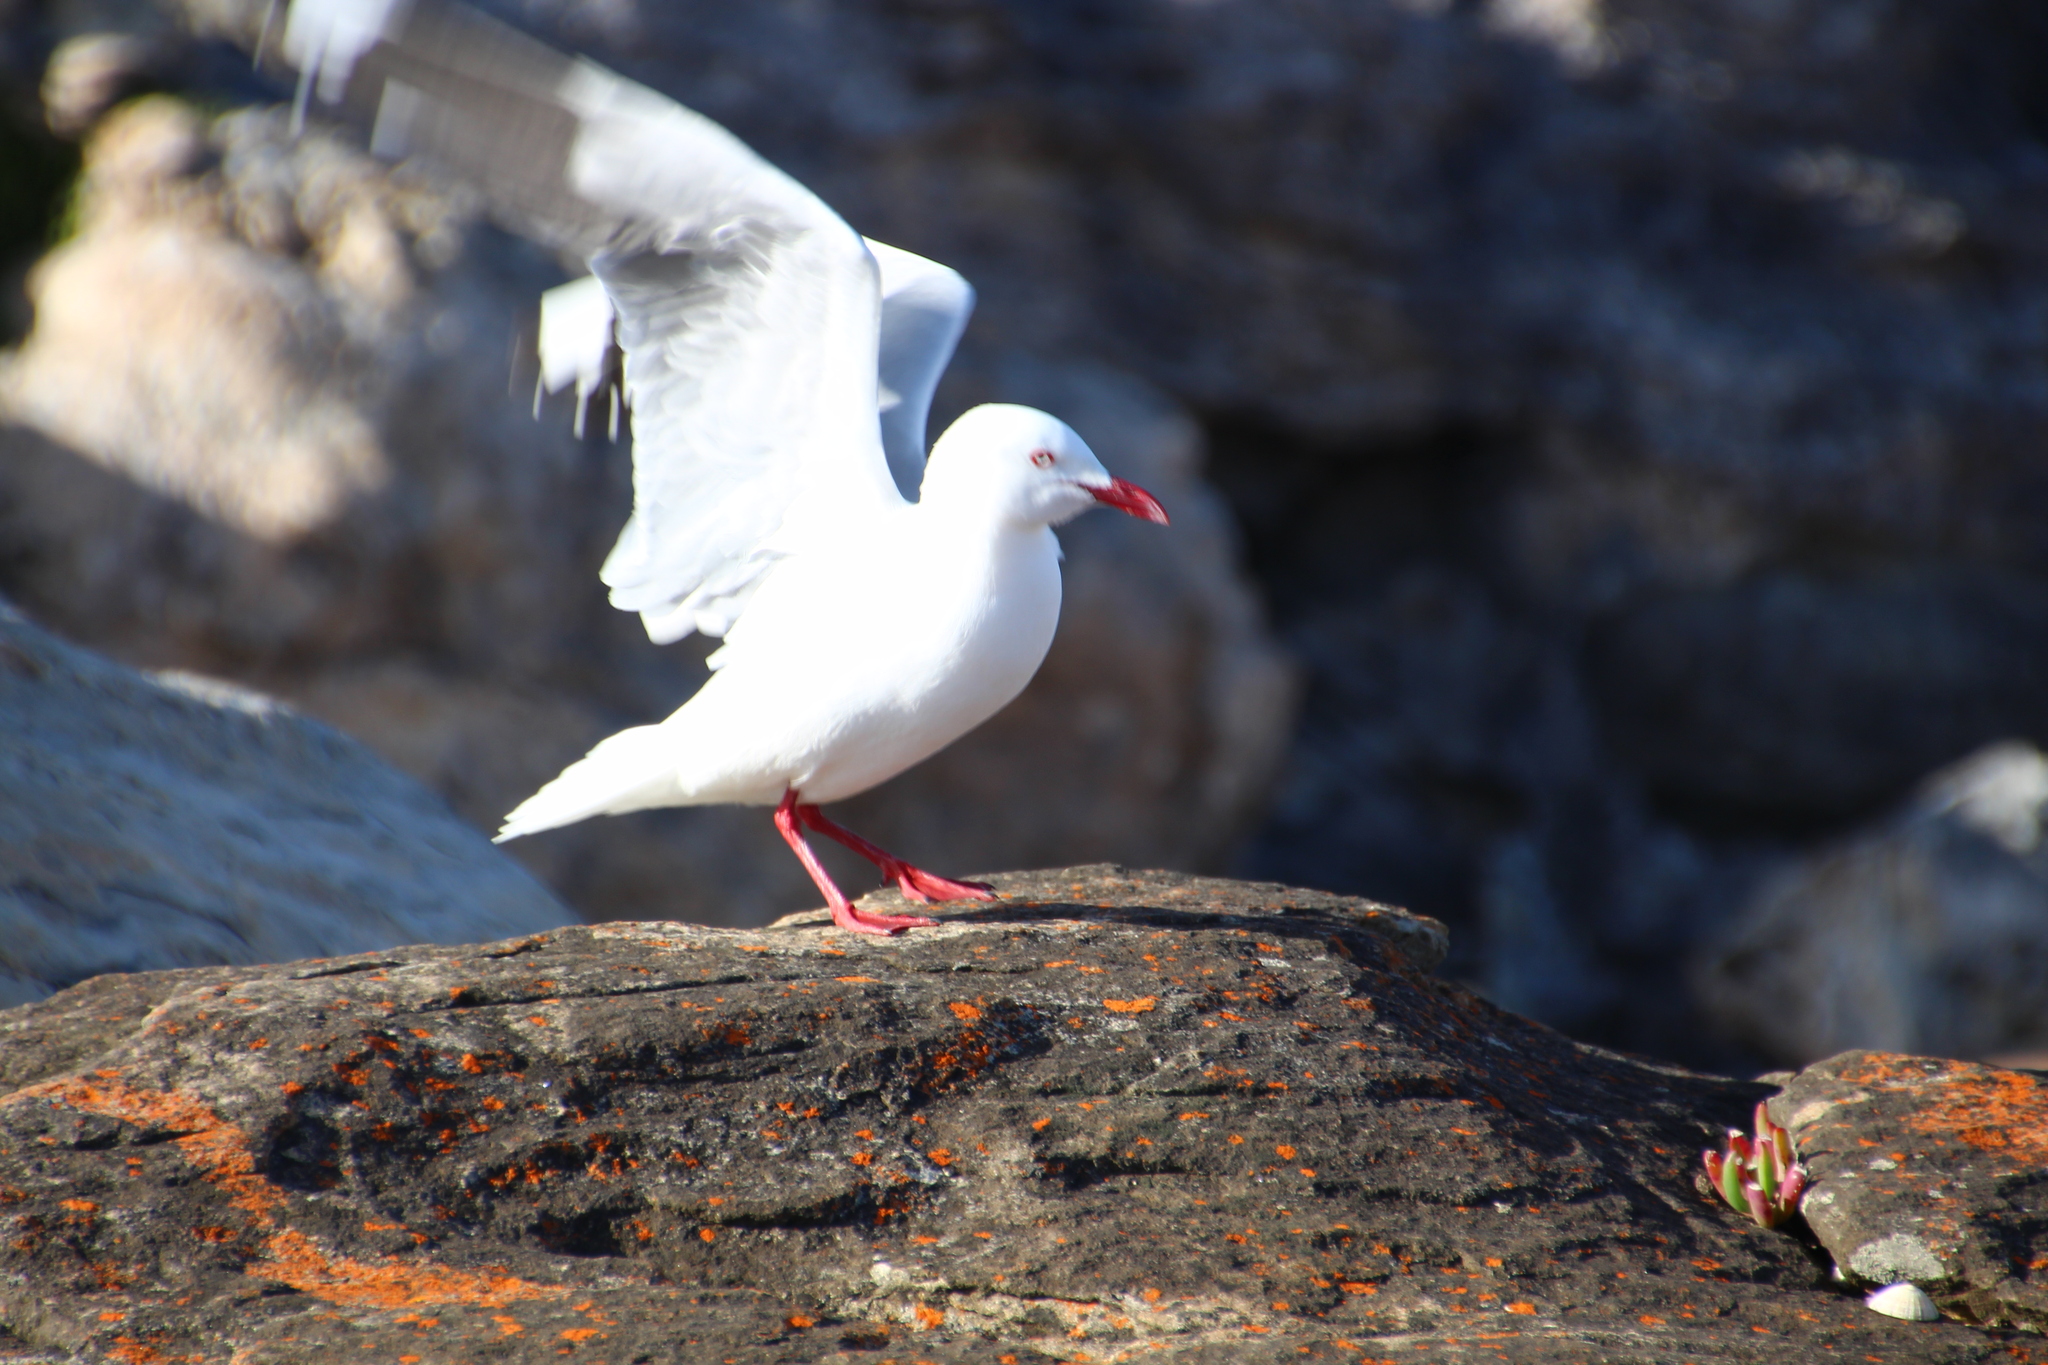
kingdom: Animalia
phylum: Chordata
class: Aves
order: Charadriiformes
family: Laridae
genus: Chroicocephalus
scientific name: Chroicocephalus novaehollandiae
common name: Silver gull
